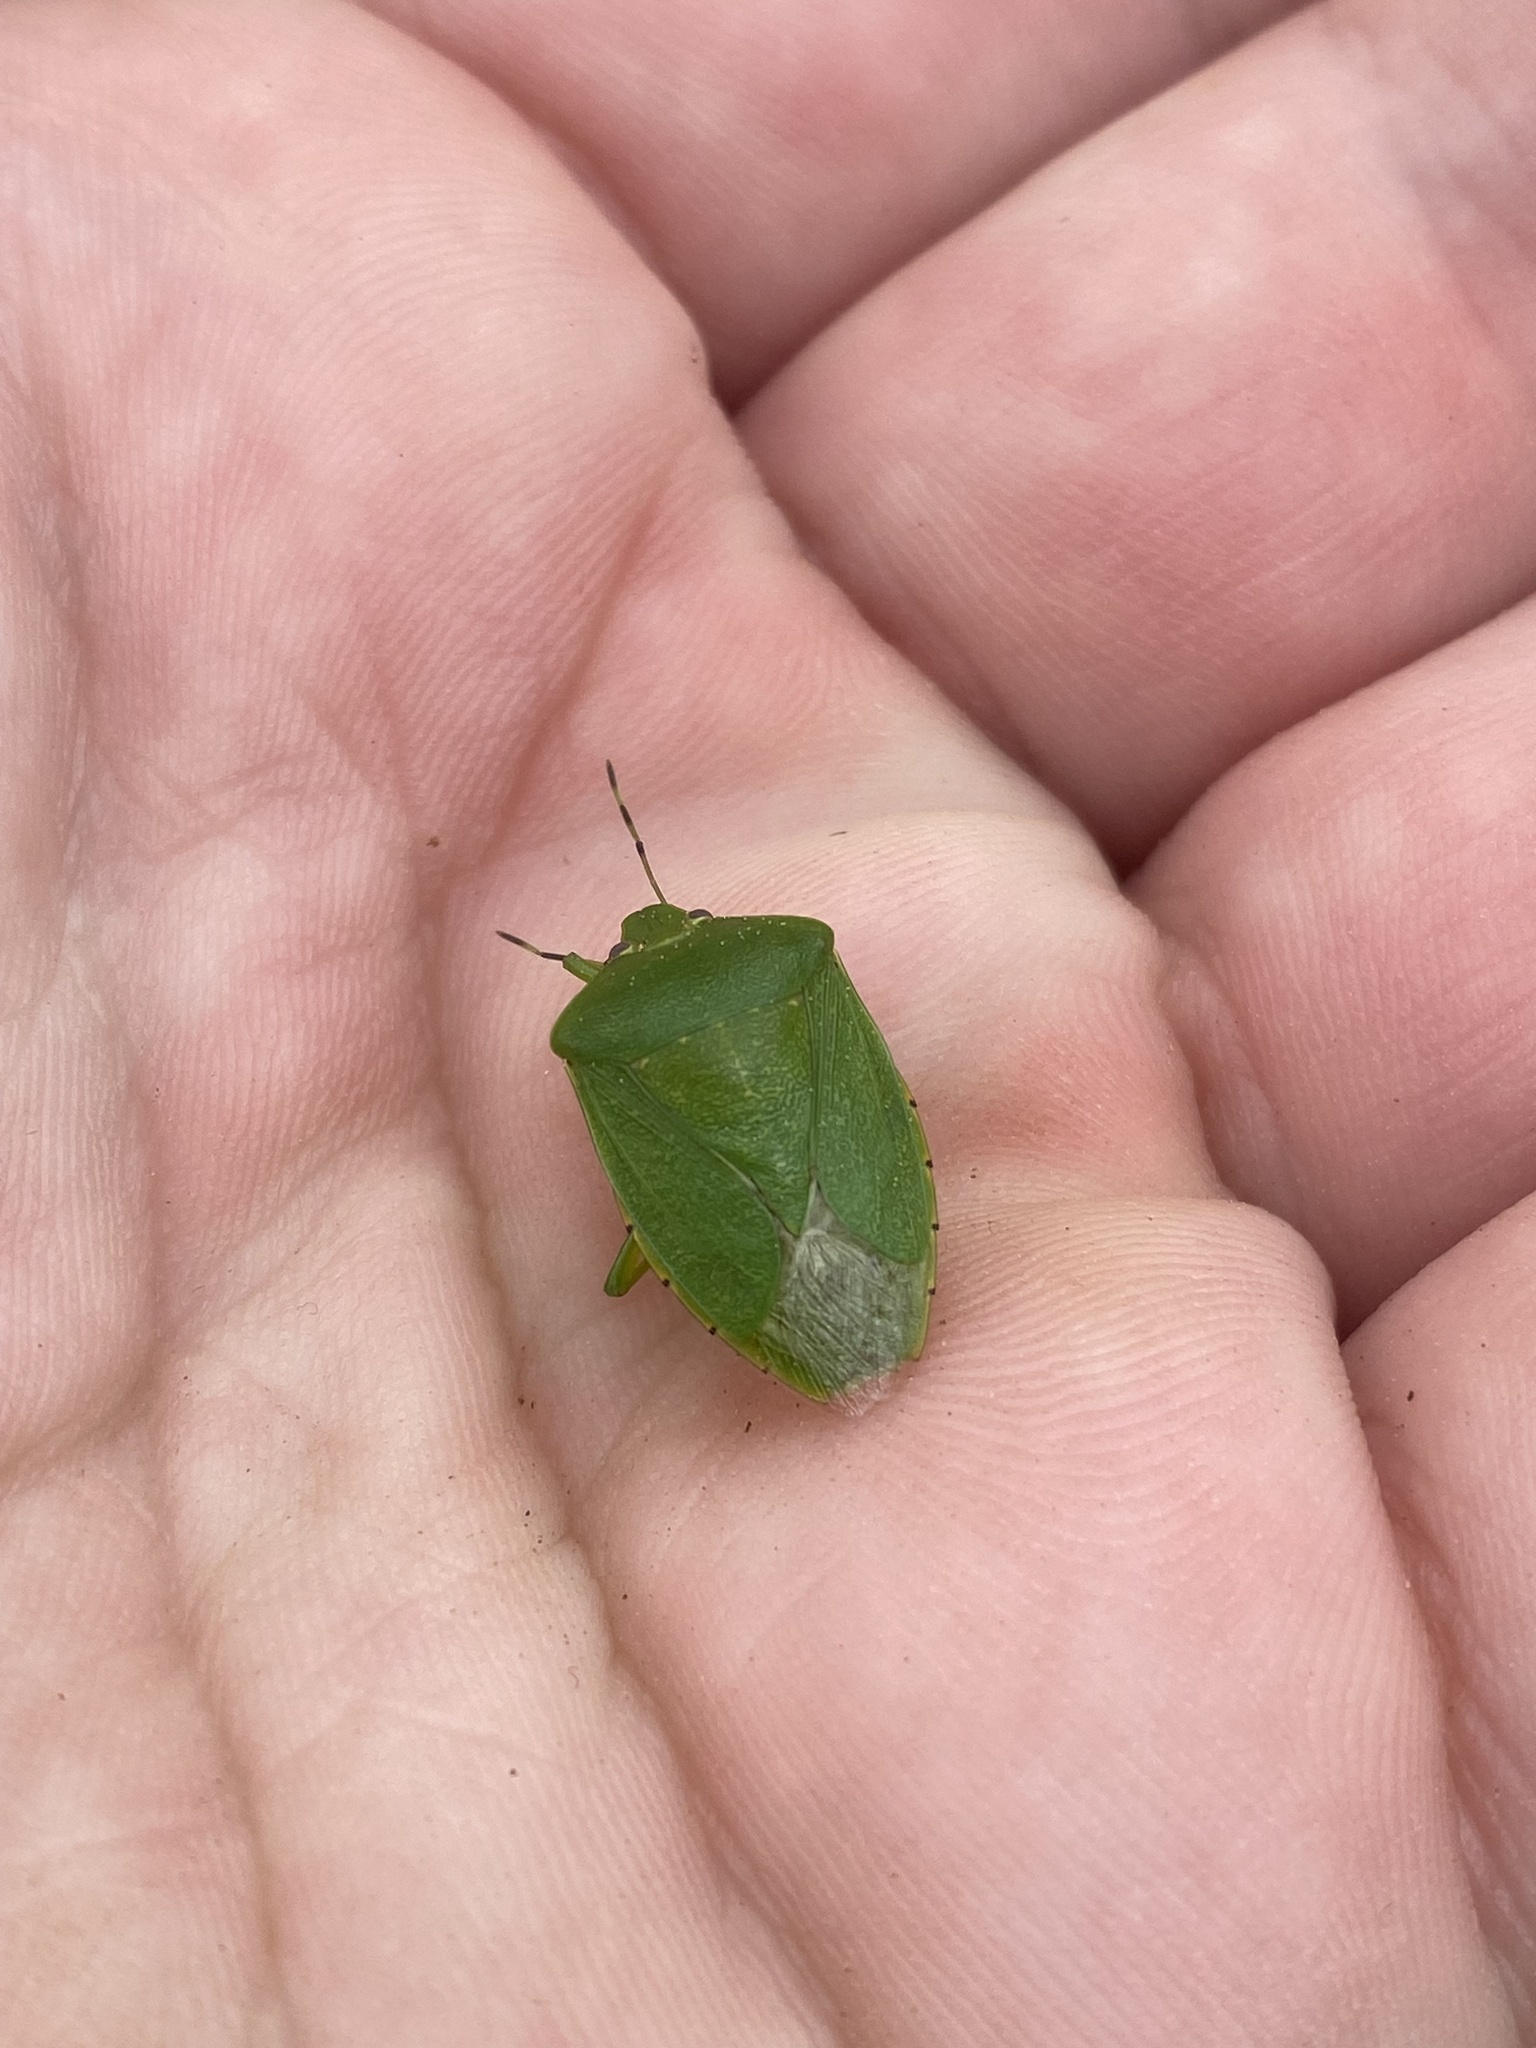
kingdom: Animalia
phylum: Arthropoda
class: Insecta
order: Hemiptera
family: Pentatomidae
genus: Chinavia
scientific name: Chinavia hilaris
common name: Green stink bug
